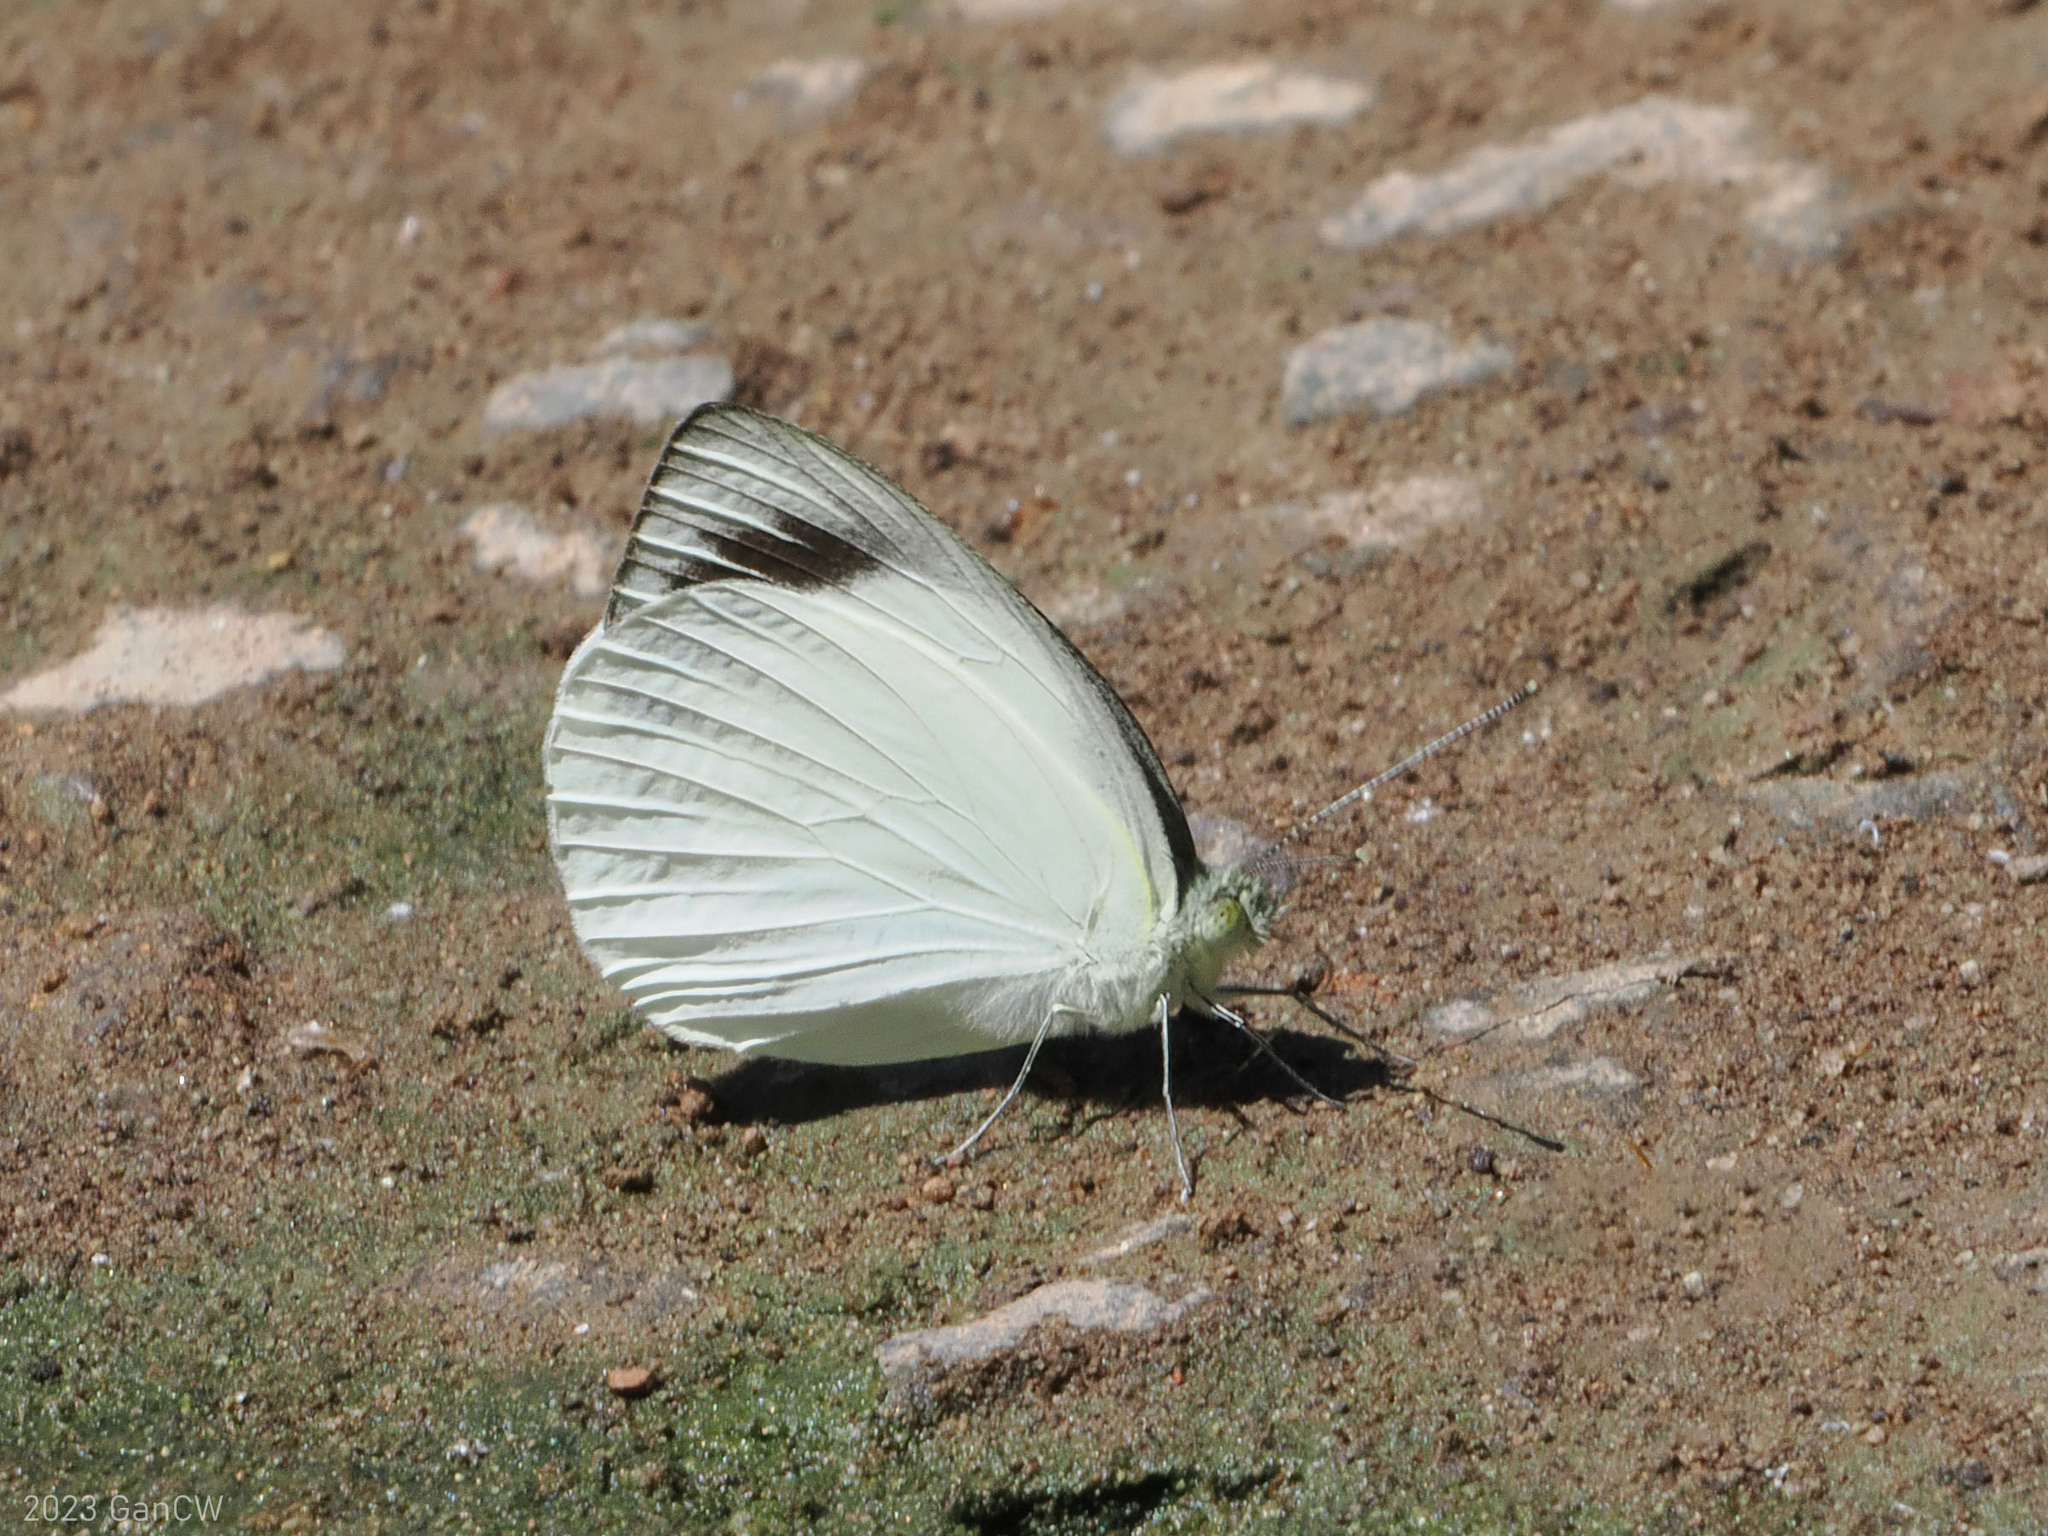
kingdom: Animalia
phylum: Arthropoda
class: Insecta
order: Lepidoptera
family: Pieridae
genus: Appias
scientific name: Appias aegis
